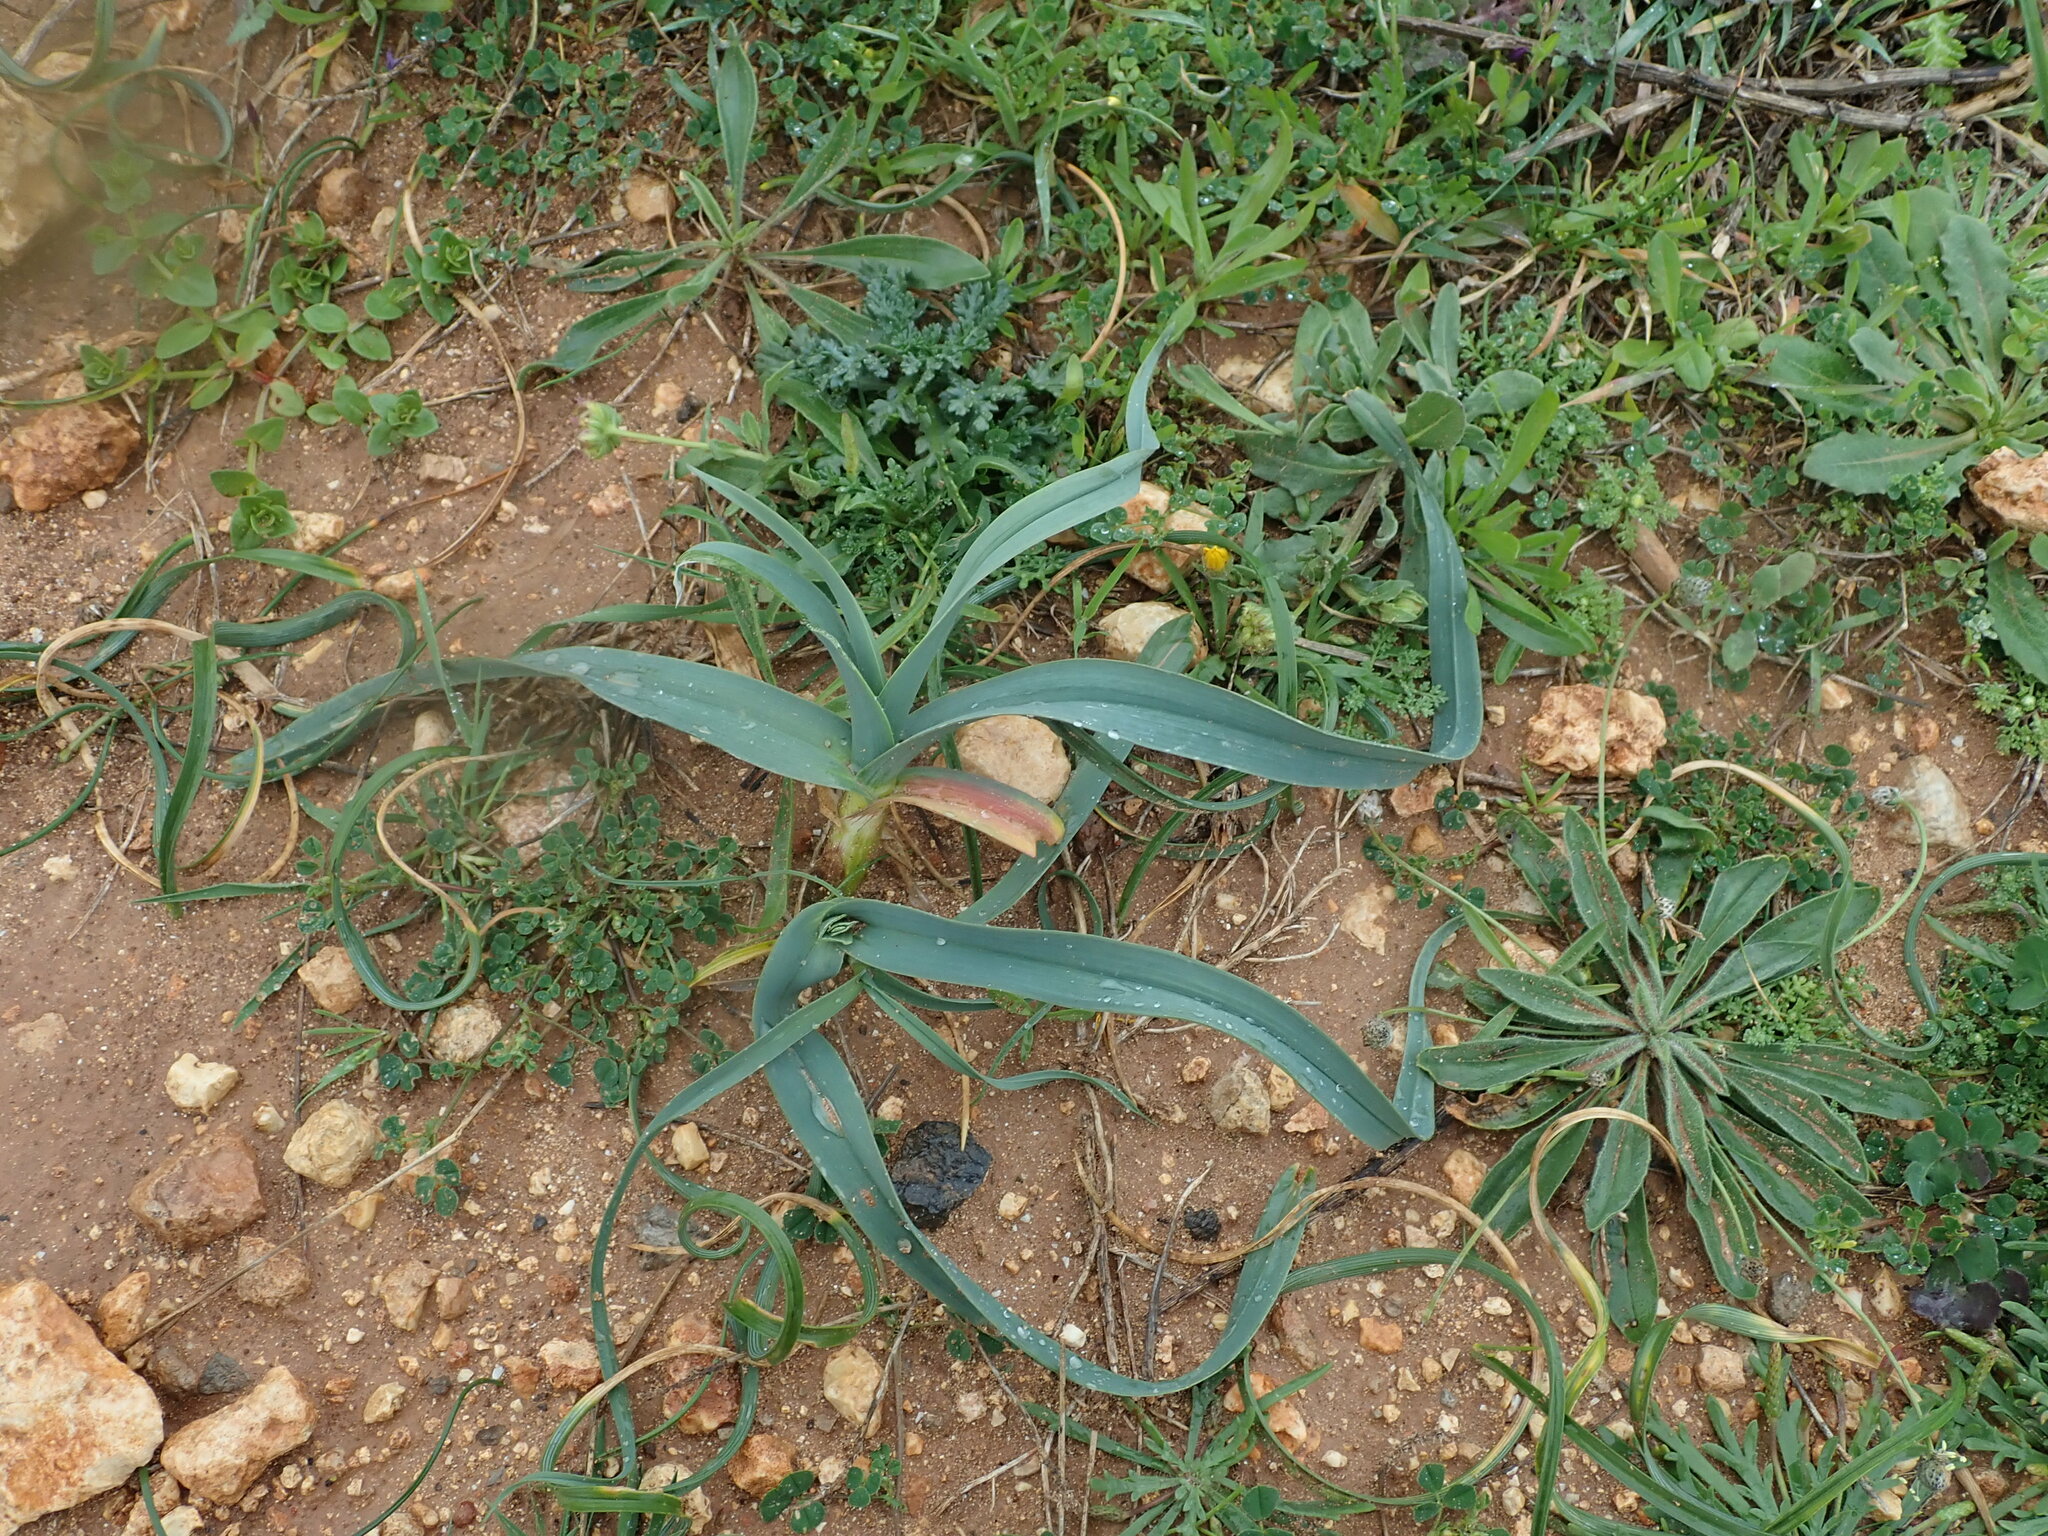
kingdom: Plantae
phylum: Tracheophyta
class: Liliopsida
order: Asparagales
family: Amaryllidaceae
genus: Allium
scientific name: Allium ampeloprasum
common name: Wild leek
